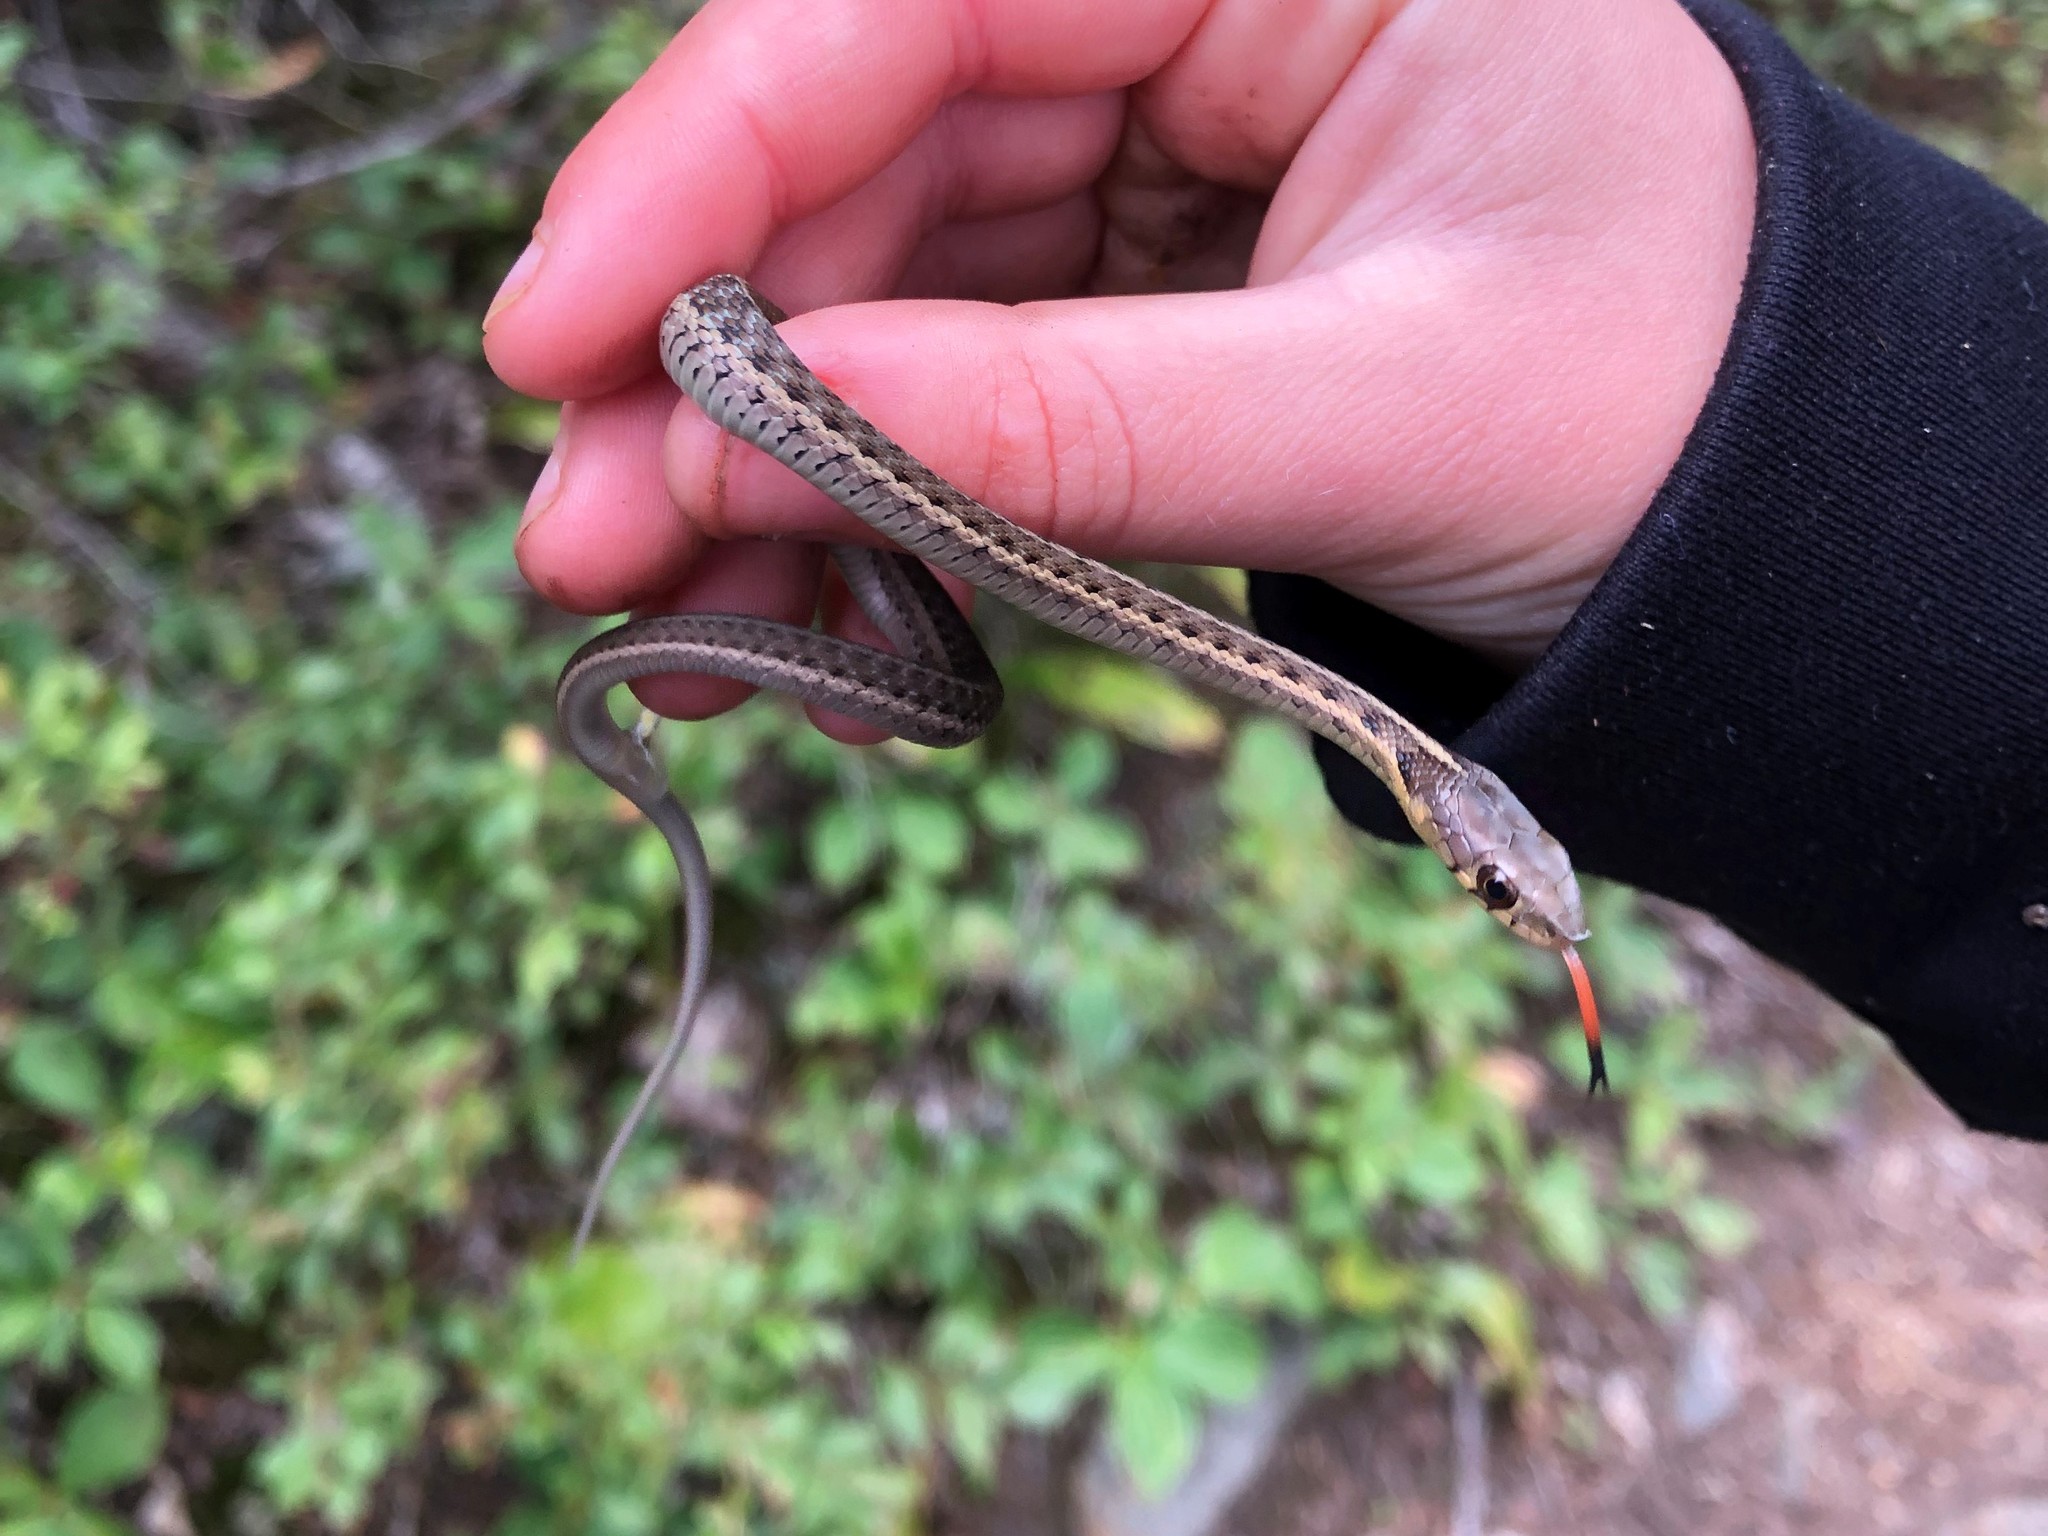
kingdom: Animalia
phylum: Chordata
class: Squamata
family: Colubridae
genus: Thamnophis
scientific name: Thamnophis sirtalis
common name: Common garter snake
